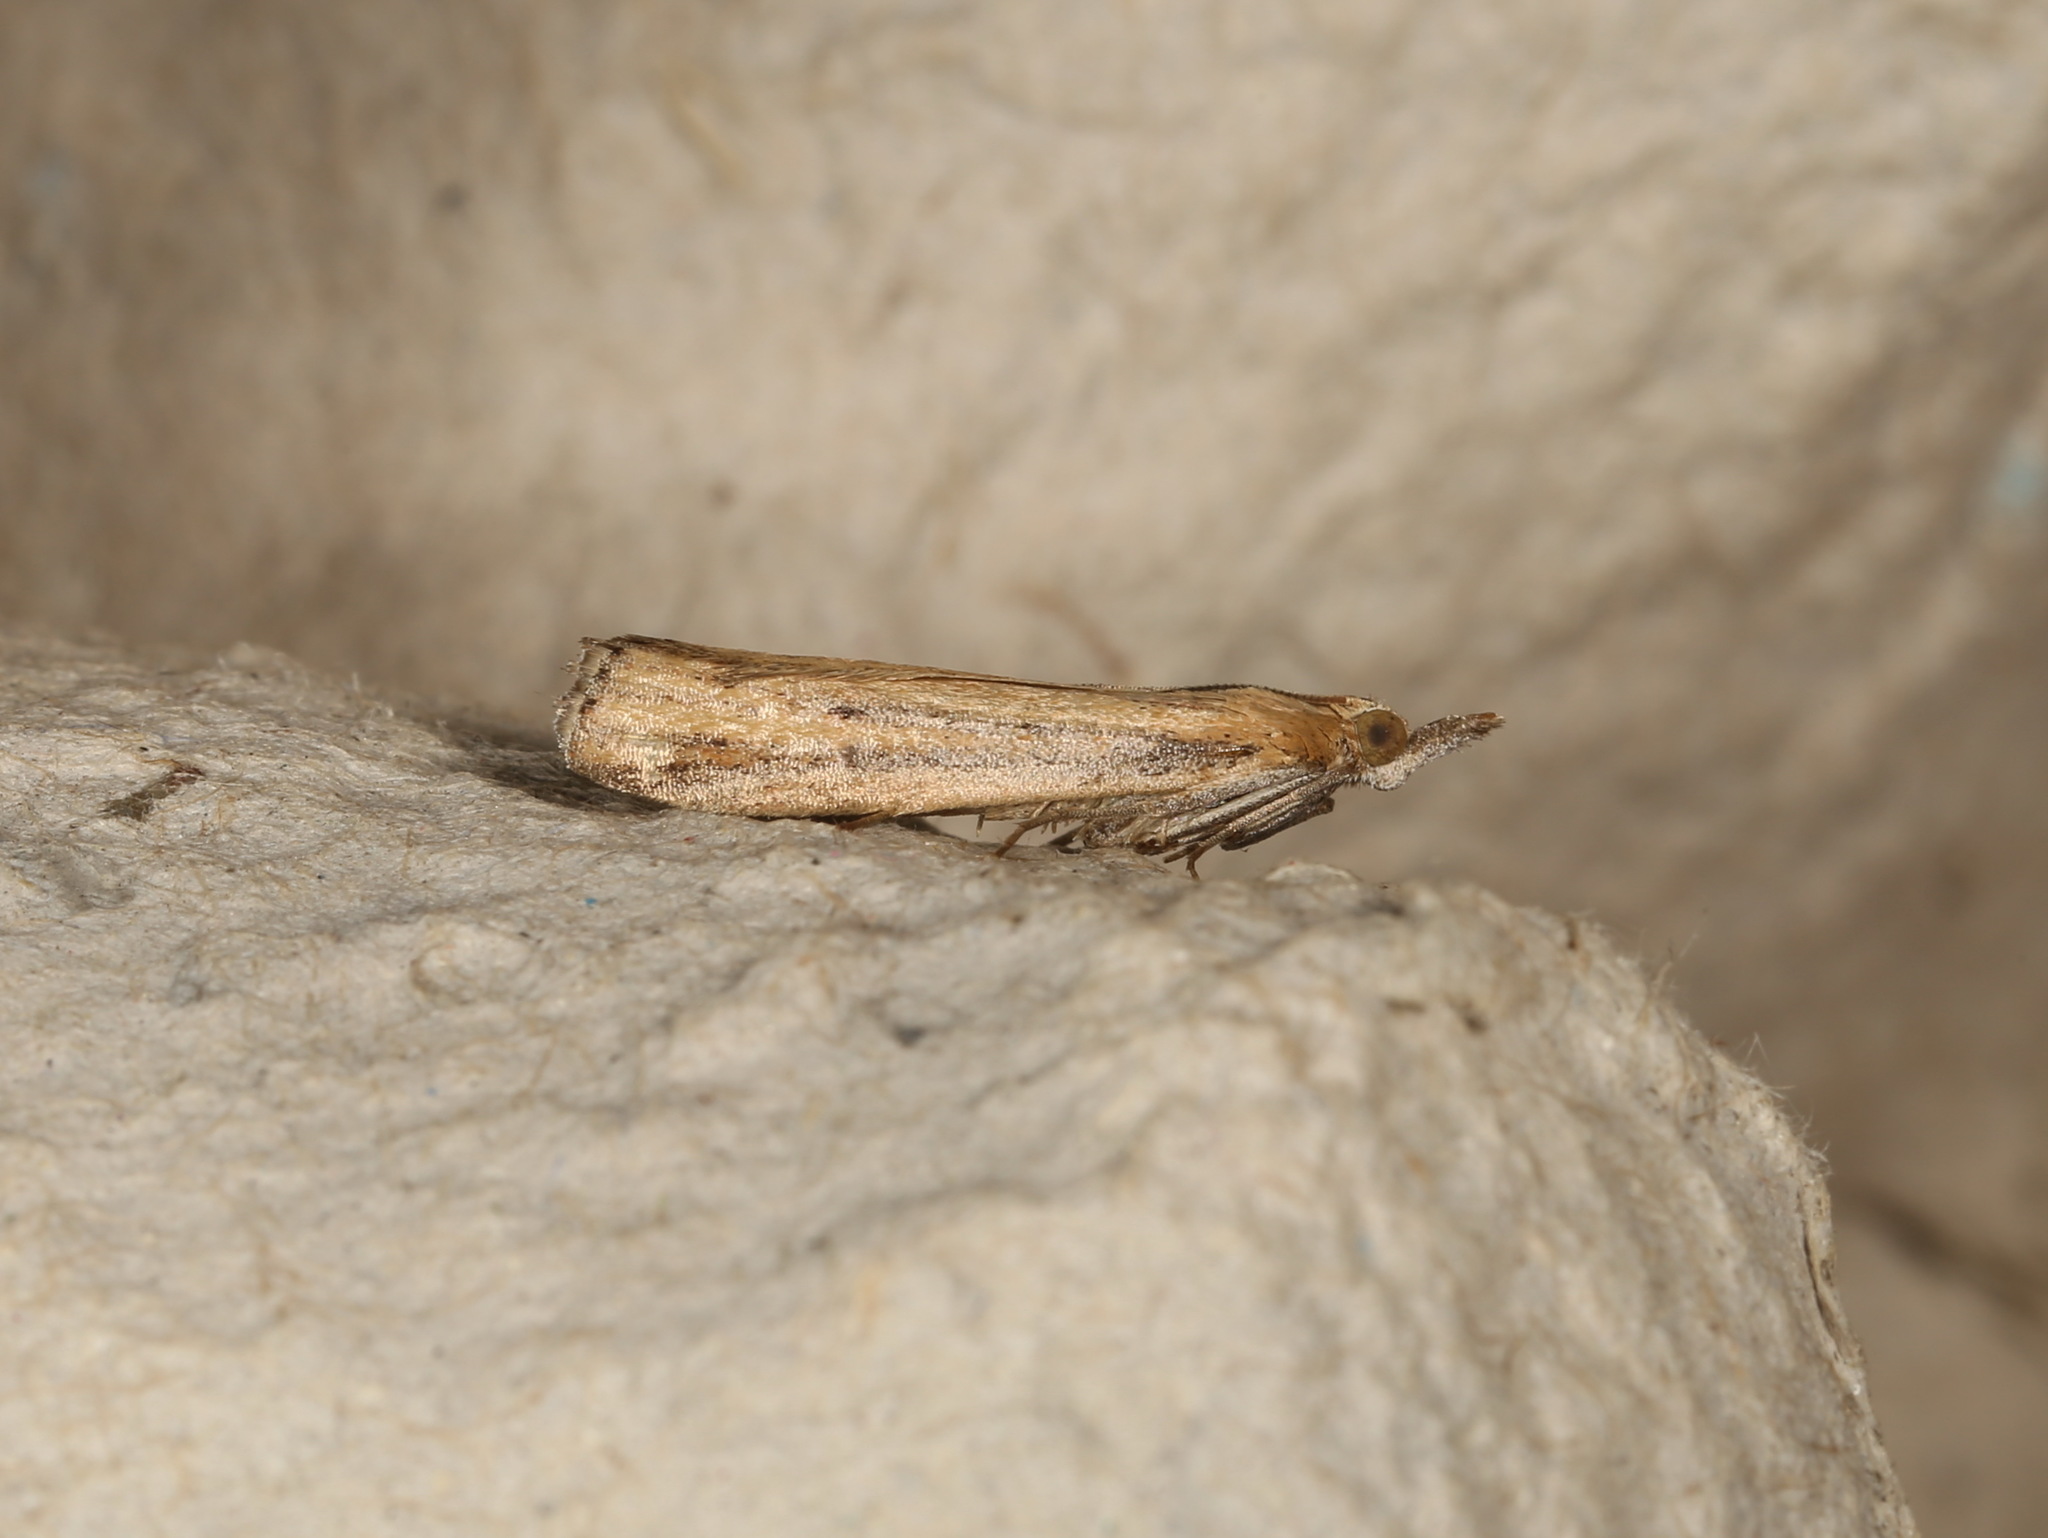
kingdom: Animalia
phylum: Arthropoda
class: Insecta
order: Lepidoptera
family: Pyralidae
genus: Faveria
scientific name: Faveria tritalis
